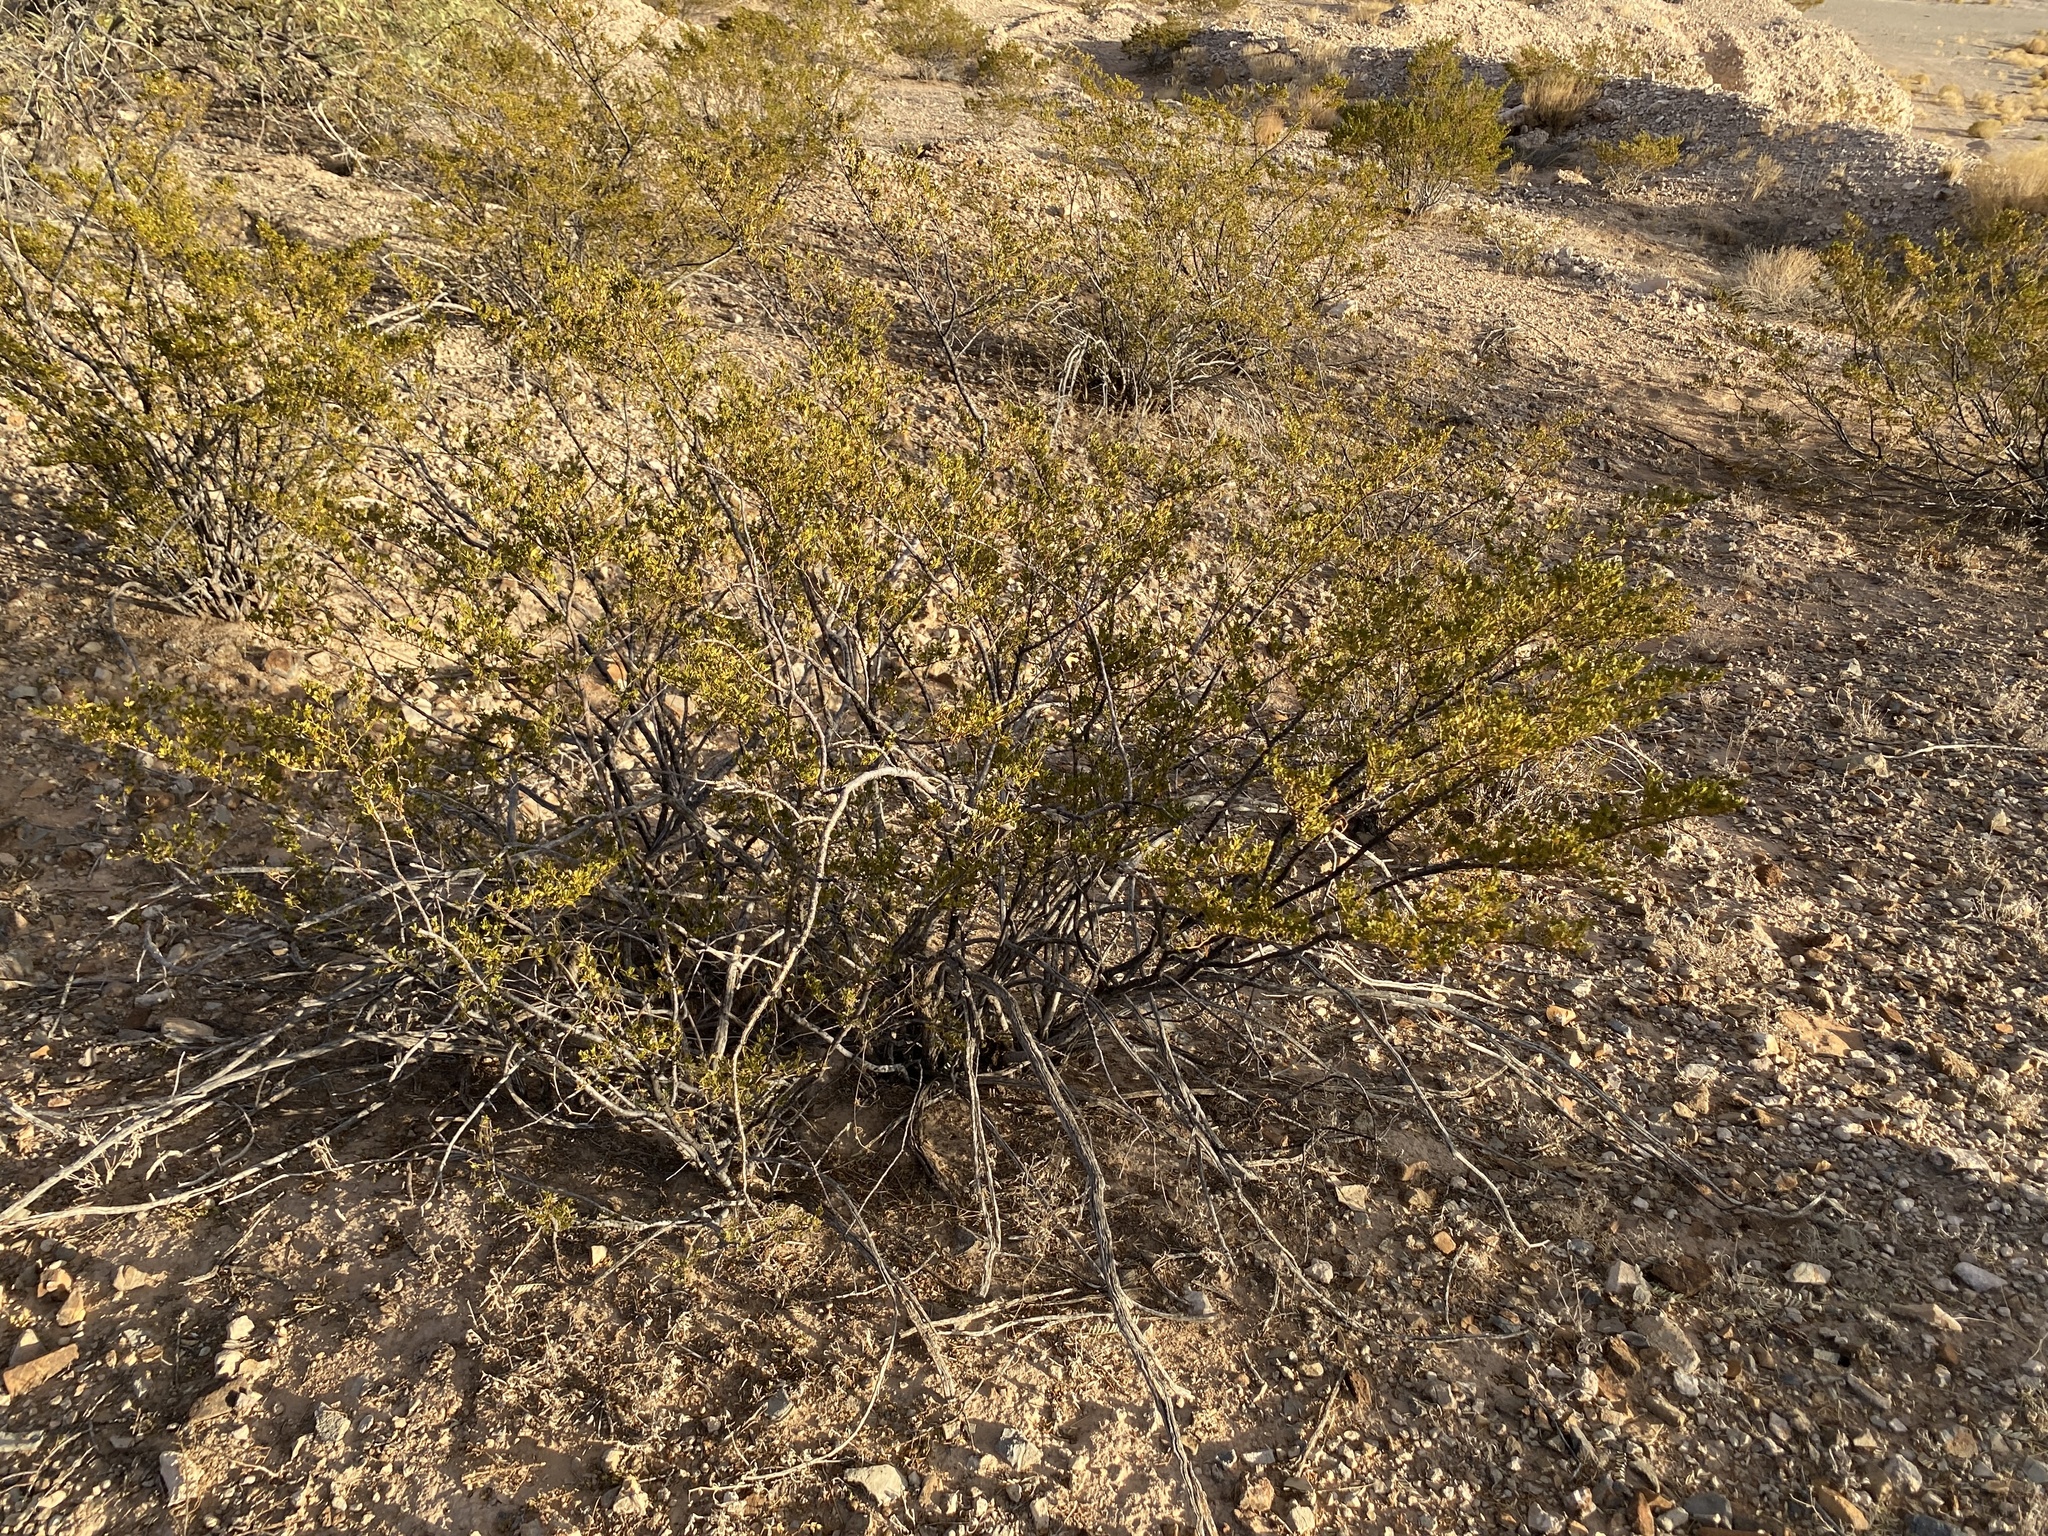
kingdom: Plantae
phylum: Tracheophyta
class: Magnoliopsida
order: Zygophyllales
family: Zygophyllaceae
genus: Larrea
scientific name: Larrea tridentata
